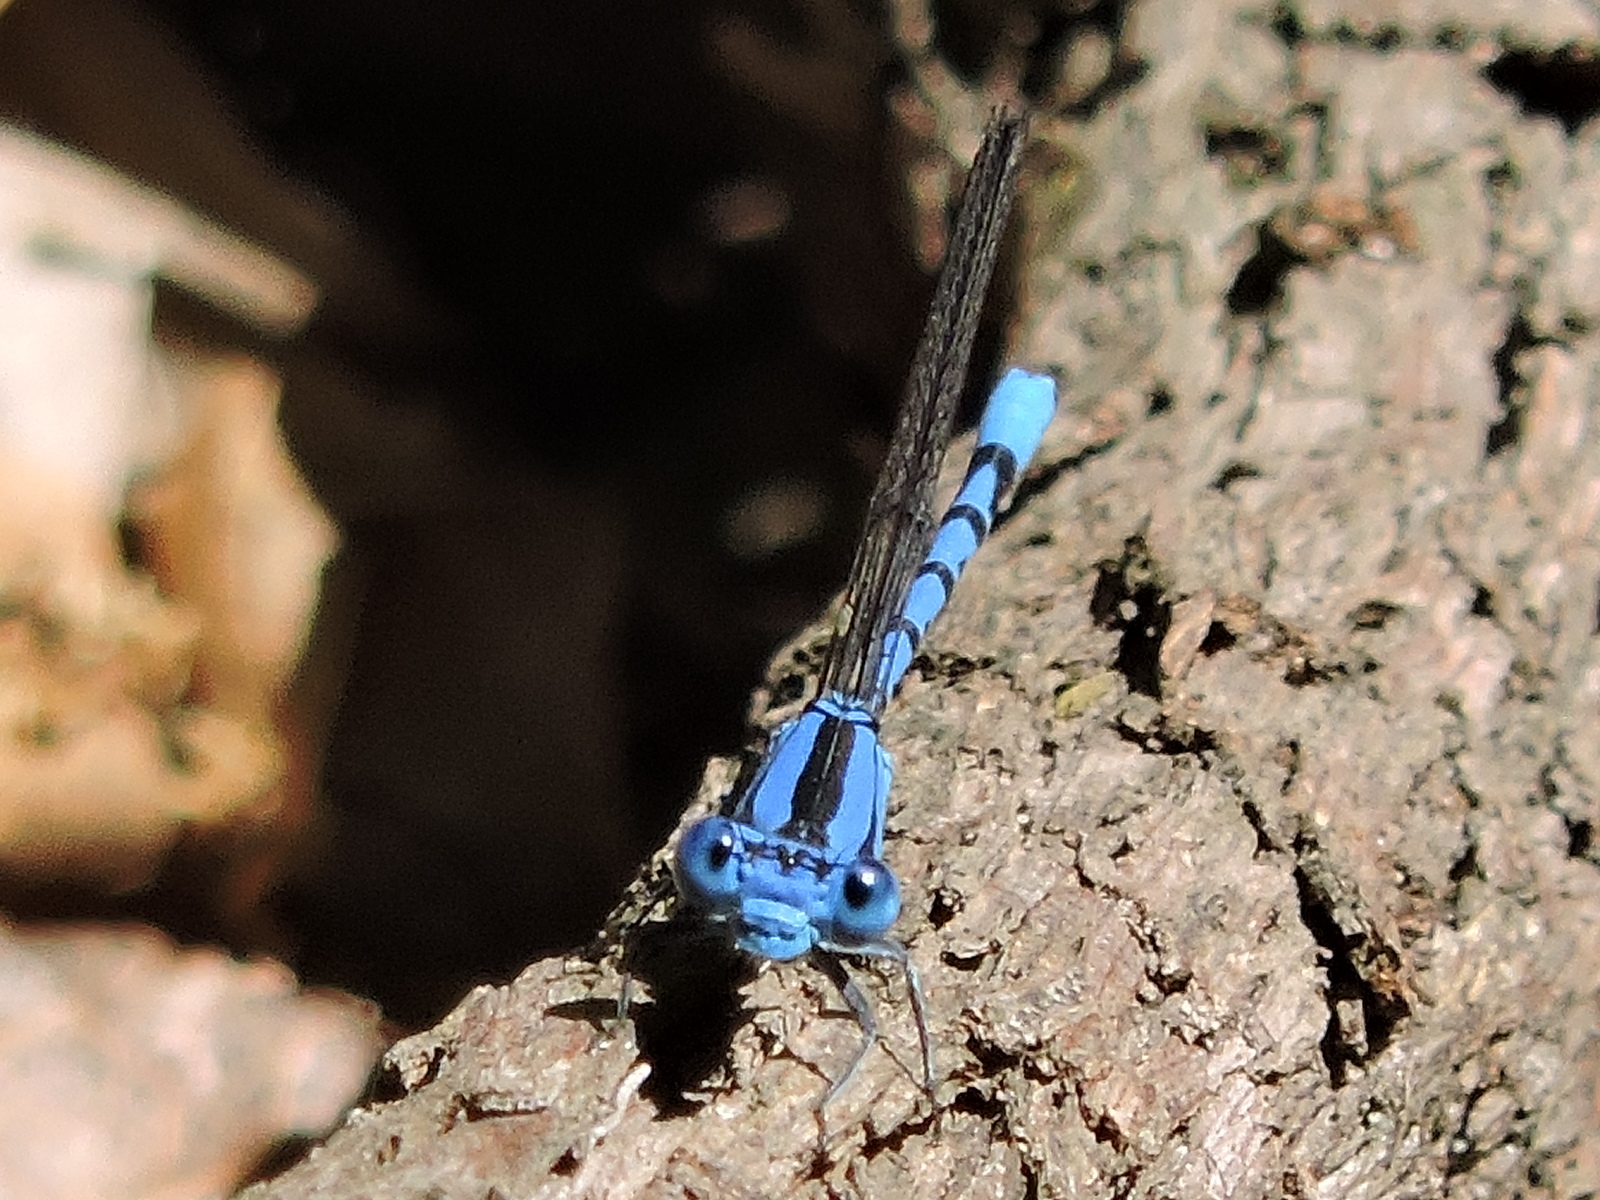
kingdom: Animalia
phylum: Arthropoda
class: Insecta
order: Odonata
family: Coenagrionidae
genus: Argia
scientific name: Argia funebris
